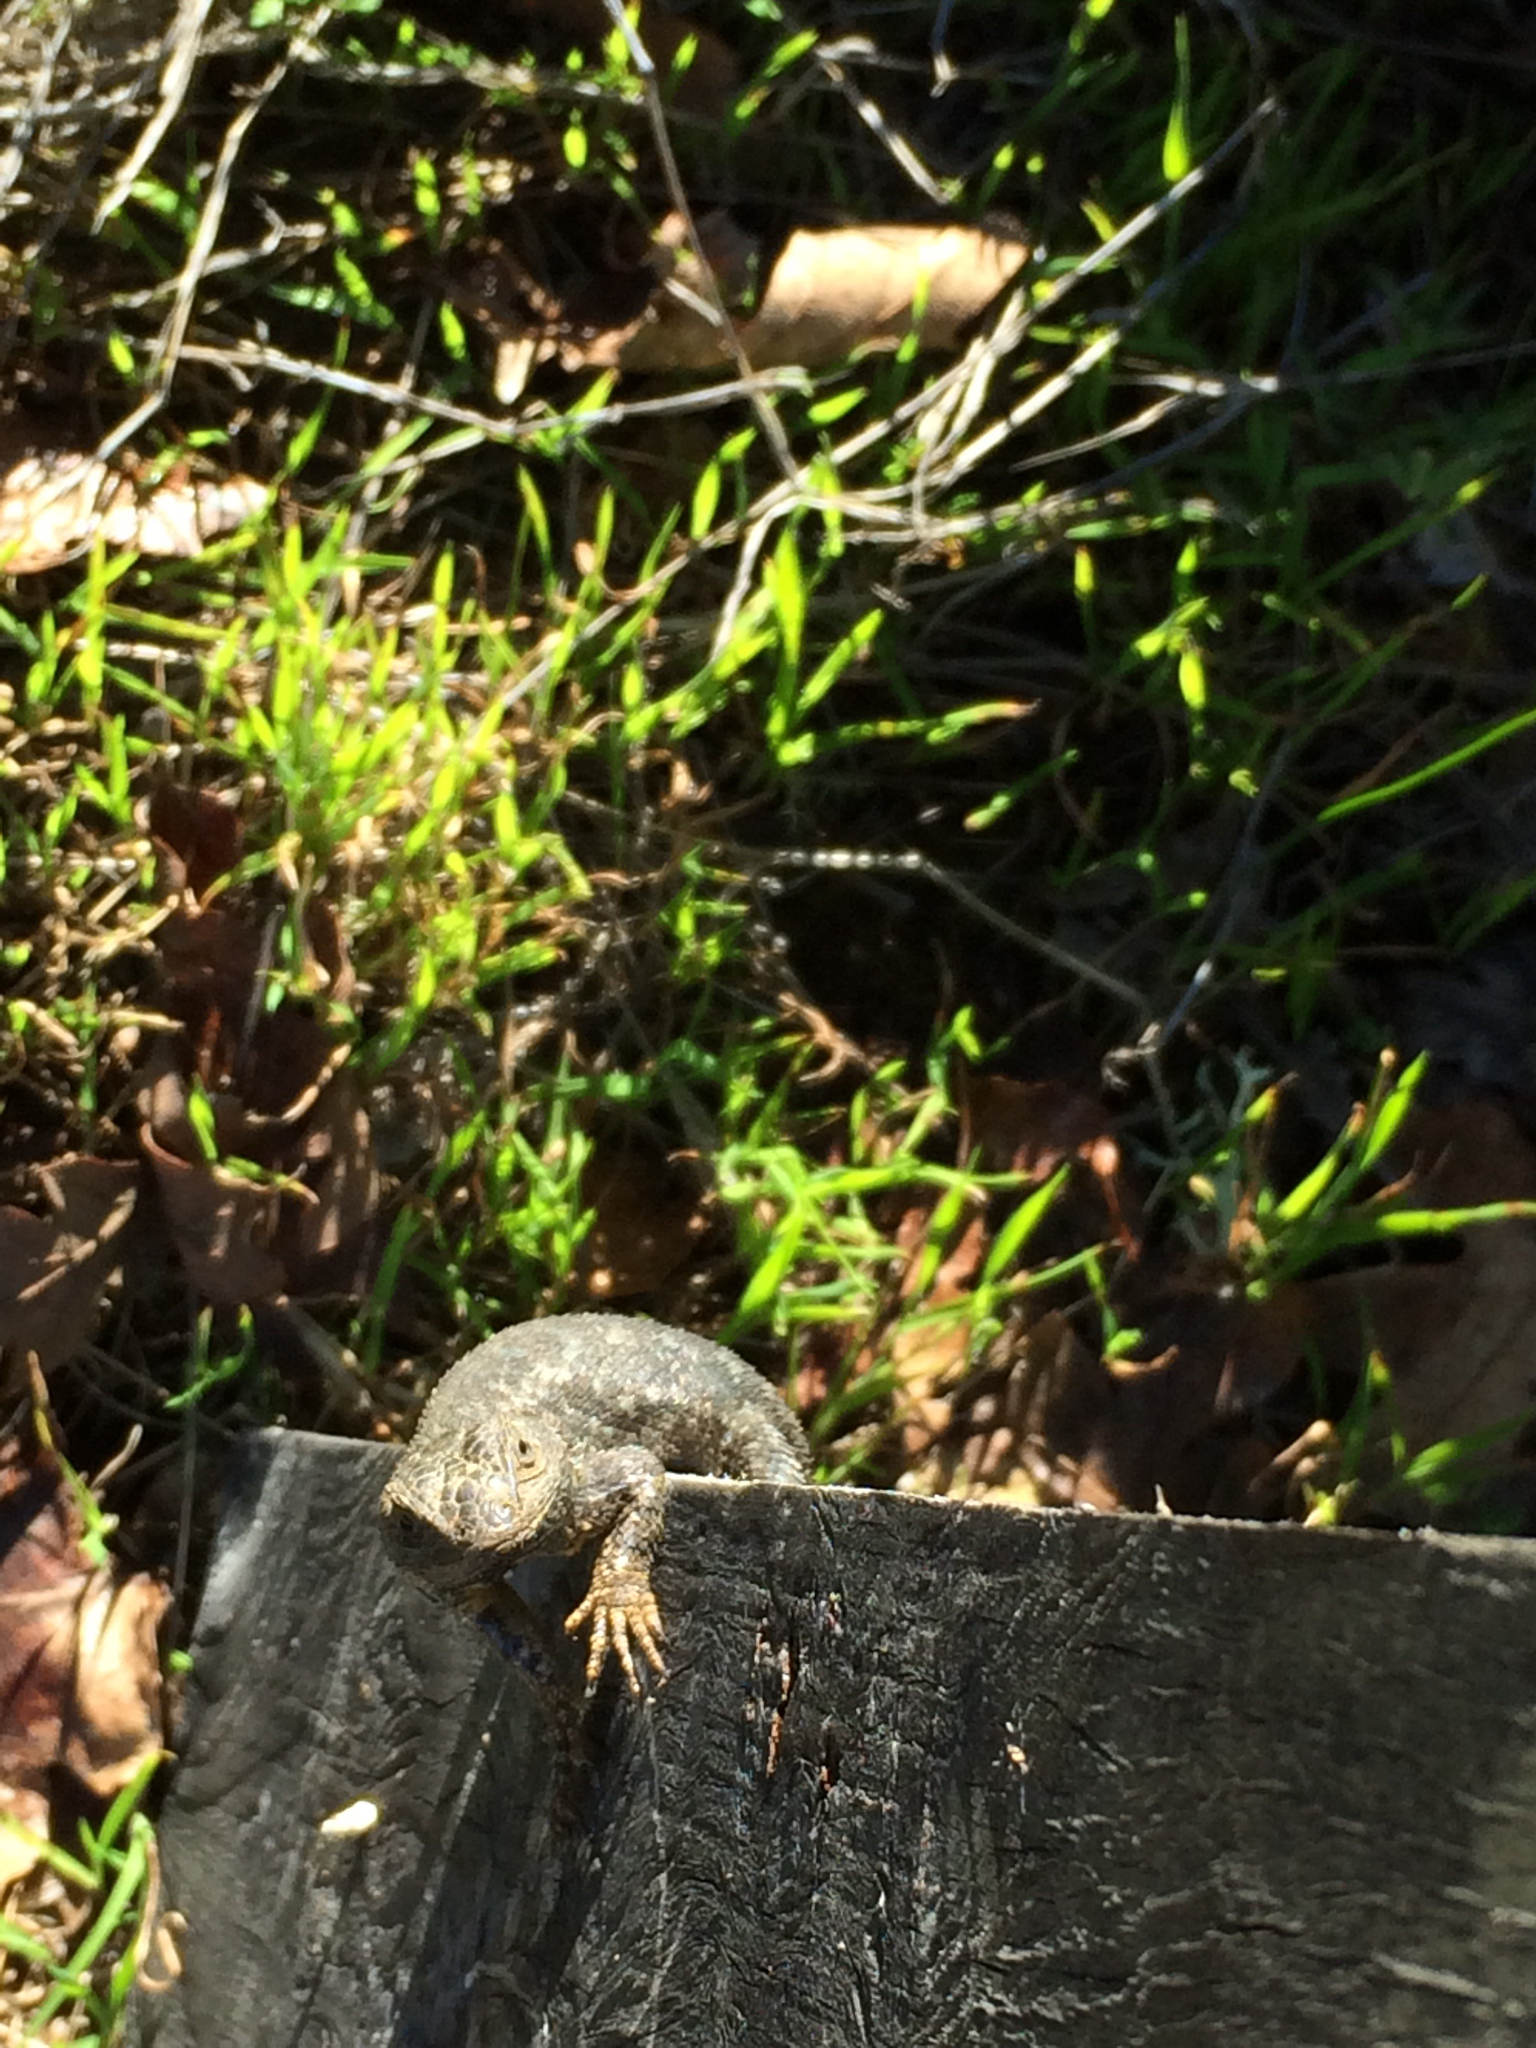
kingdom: Animalia
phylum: Chordata
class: Squamata
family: Phrynosomatidae
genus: Sceloporus
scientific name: Sceloporus occidentalis
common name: Western fence lizard
